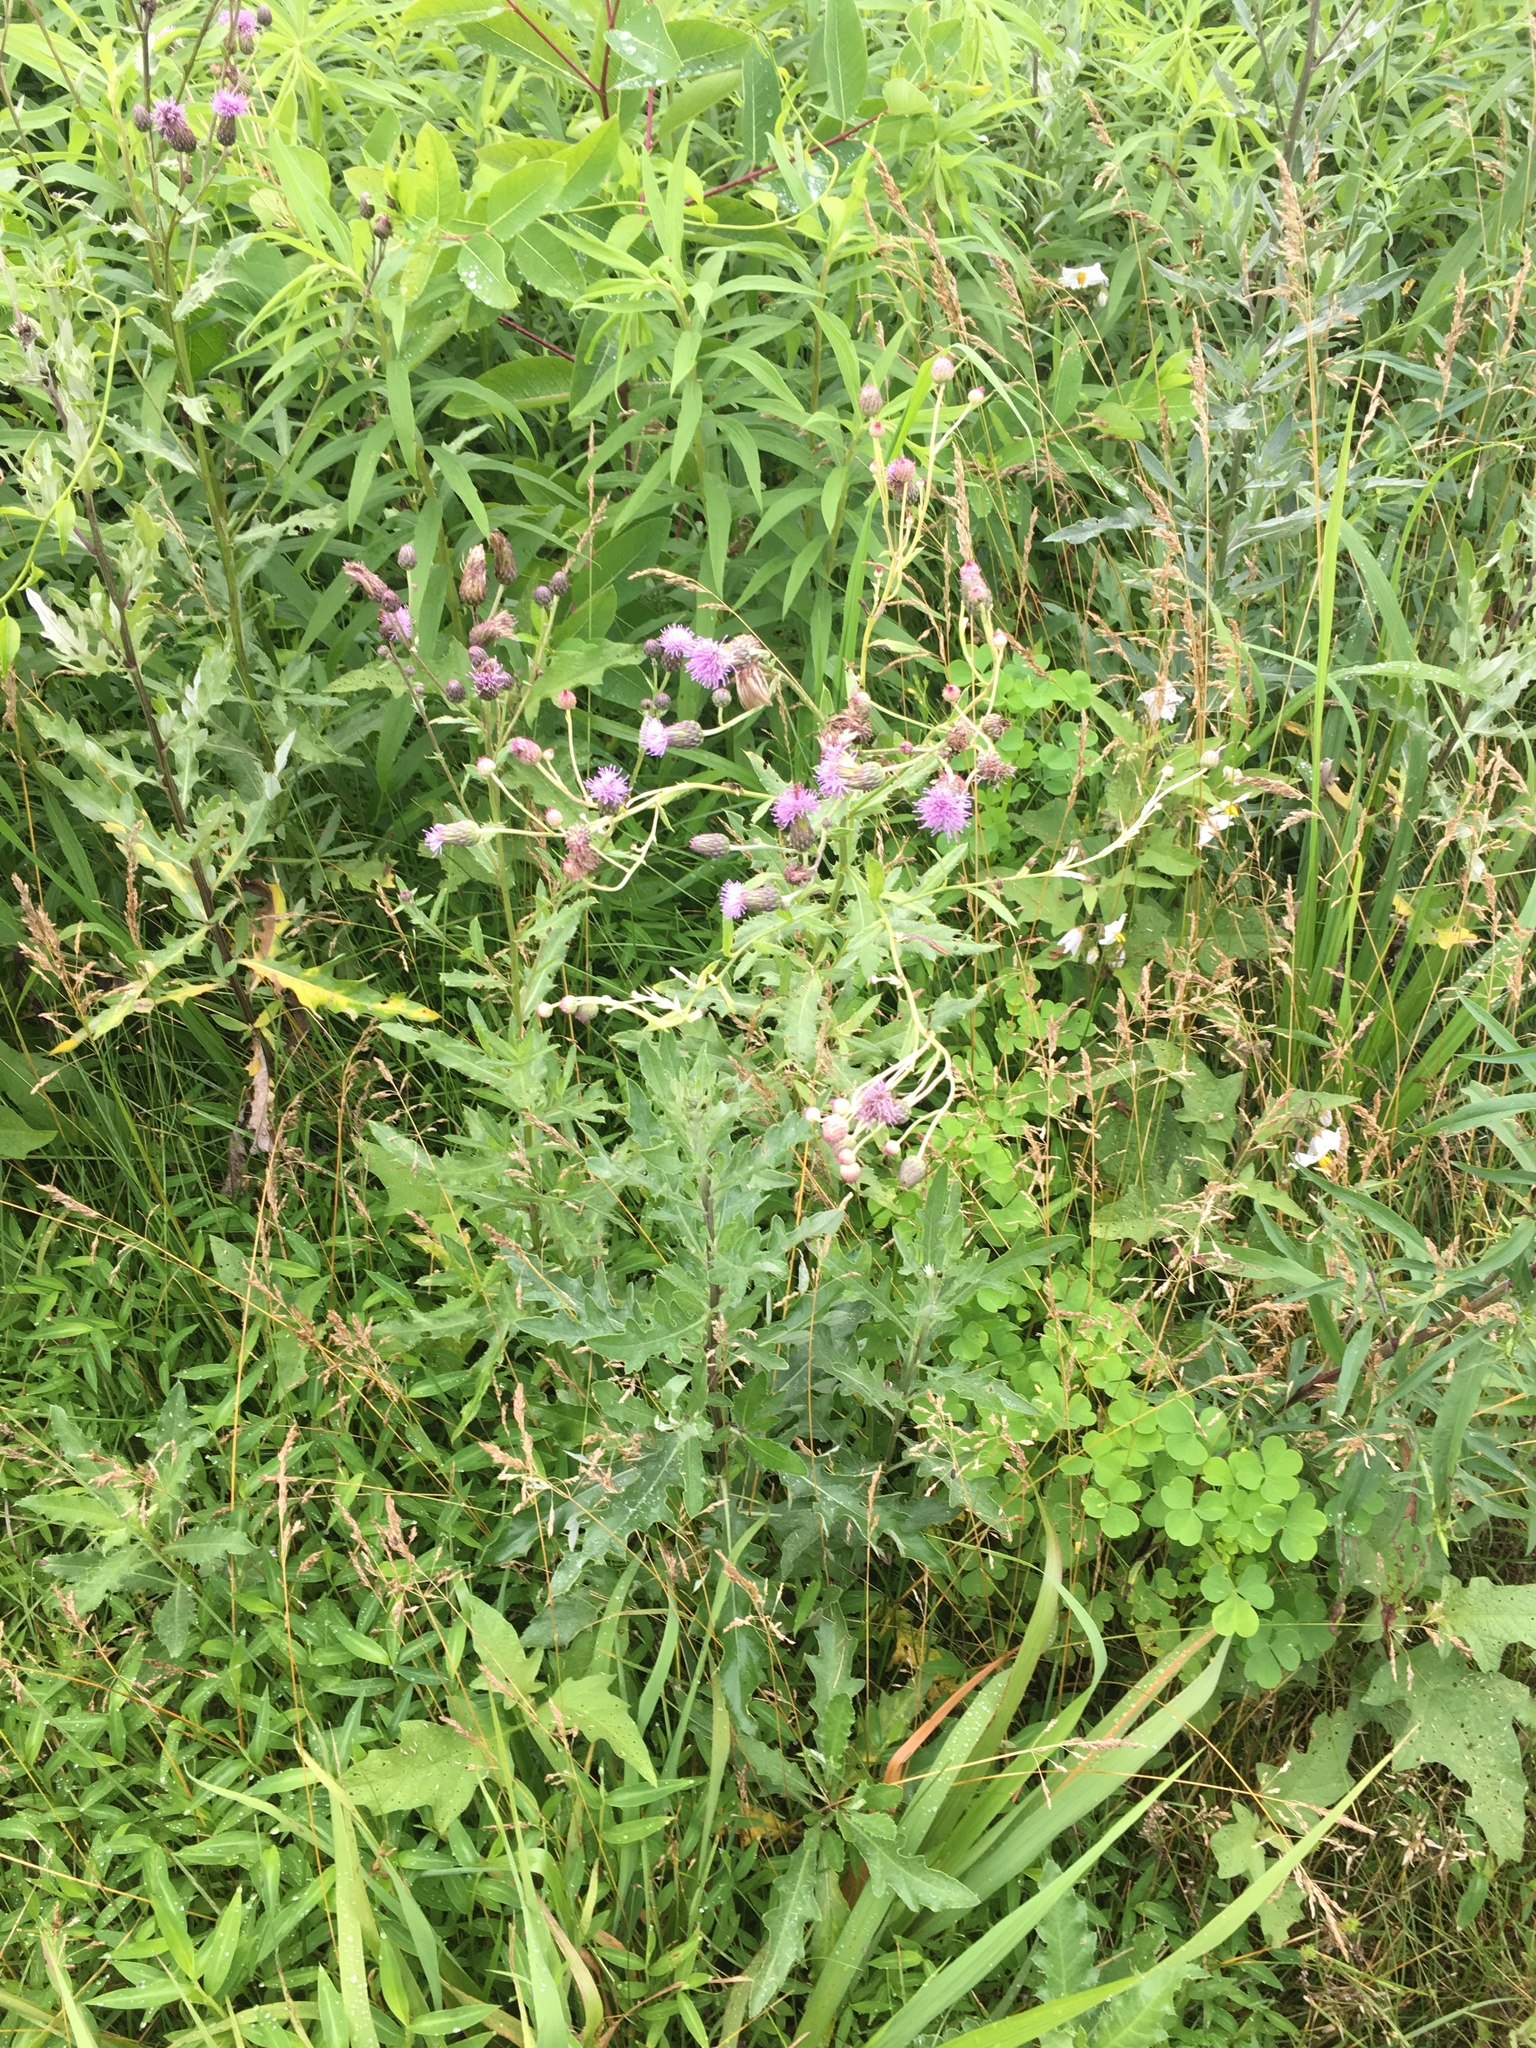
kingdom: Plantae
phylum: Tracheophyta
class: Magnoliopsida
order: Asterales
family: Asteraceae
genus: Cirsium
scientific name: Cirsium arvense
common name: Creeping thistle
